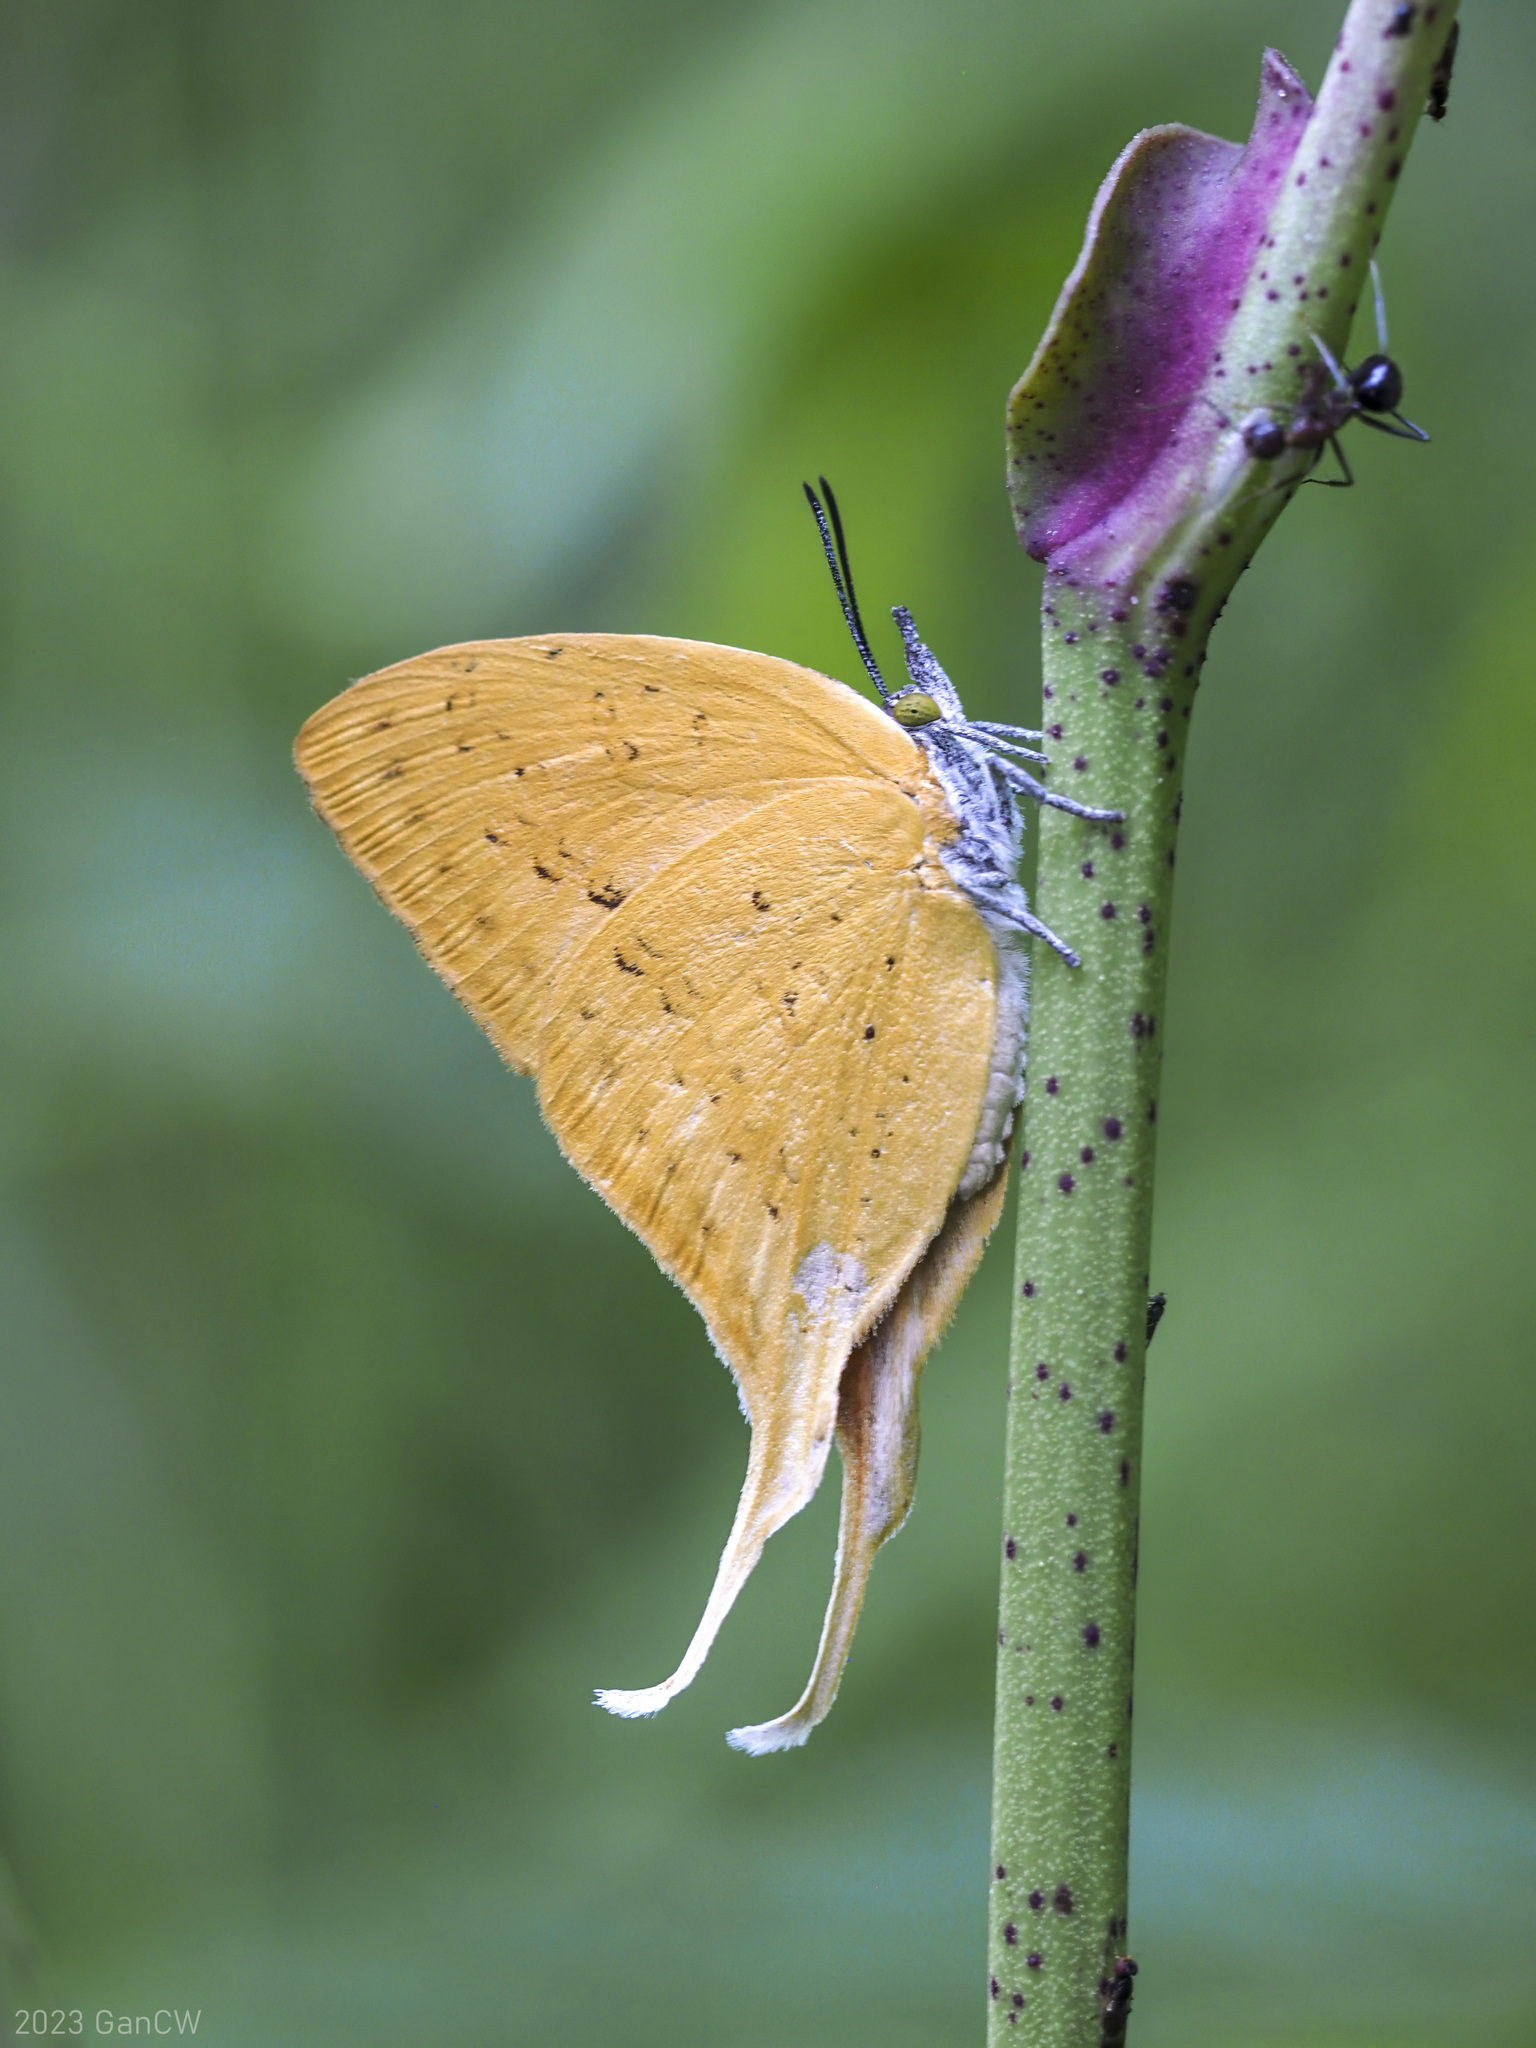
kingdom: Animalia
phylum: Arthropoda
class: Insecta
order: Lepidoptera
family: Lycaenidae
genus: Loxura
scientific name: Loxura cassiopeia
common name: Malayan yamfly
